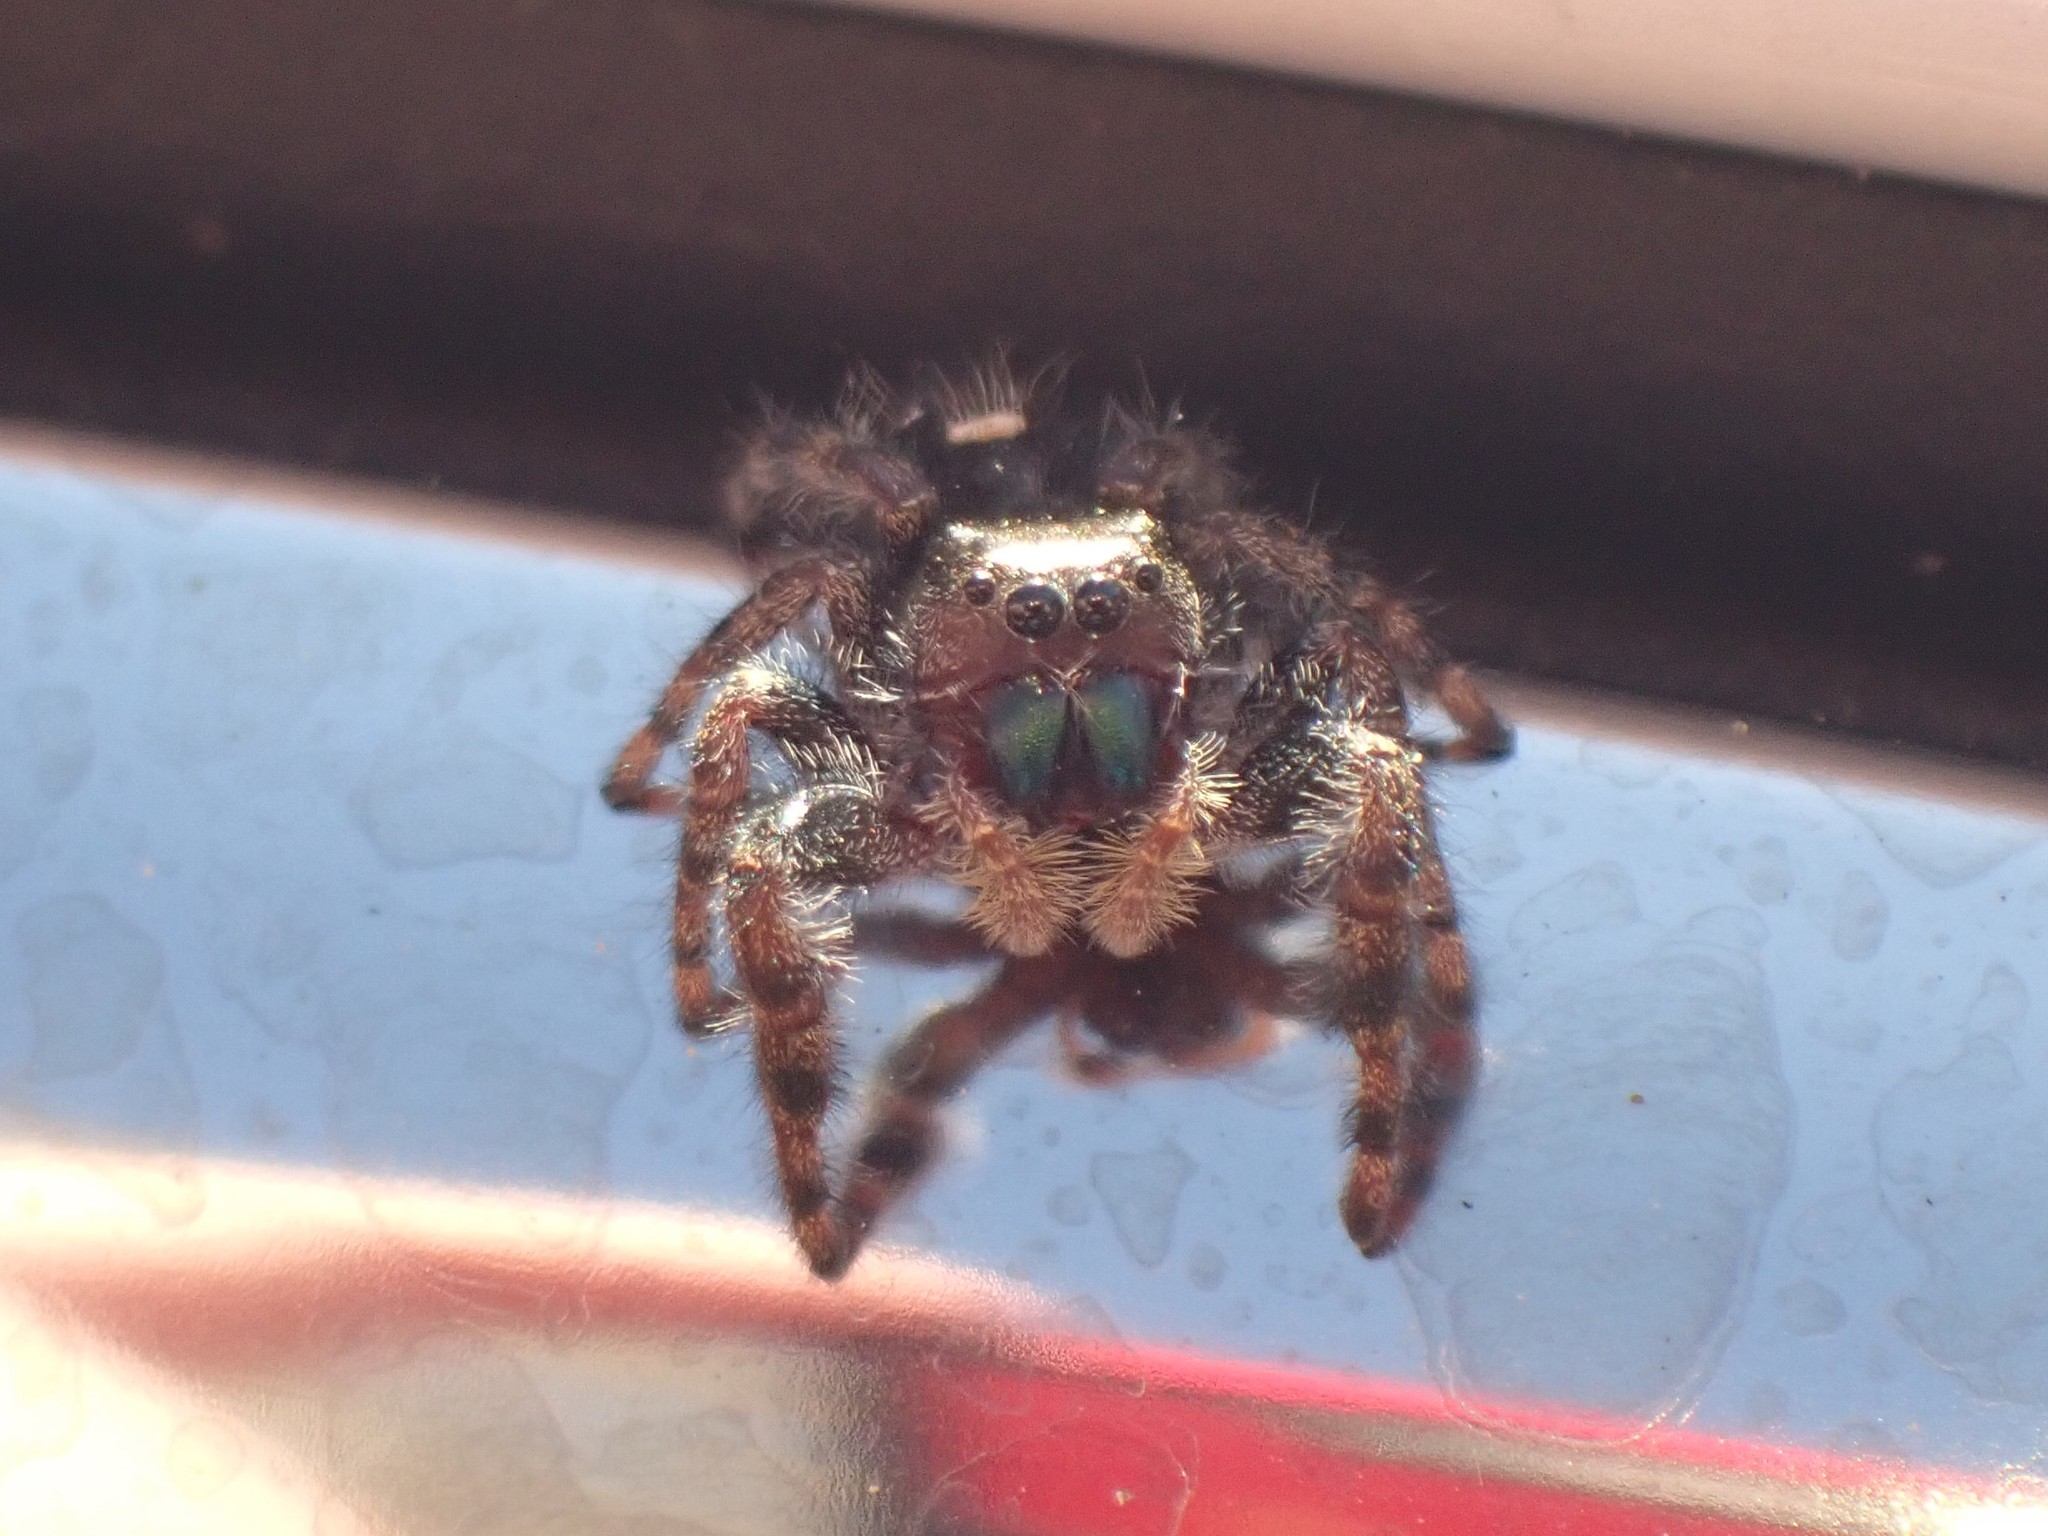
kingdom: Animalia
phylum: Arthropoda
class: Arachnida
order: Araneae
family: Salticidae
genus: Phidippus
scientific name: Phidippus audax
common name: Bold jumper
